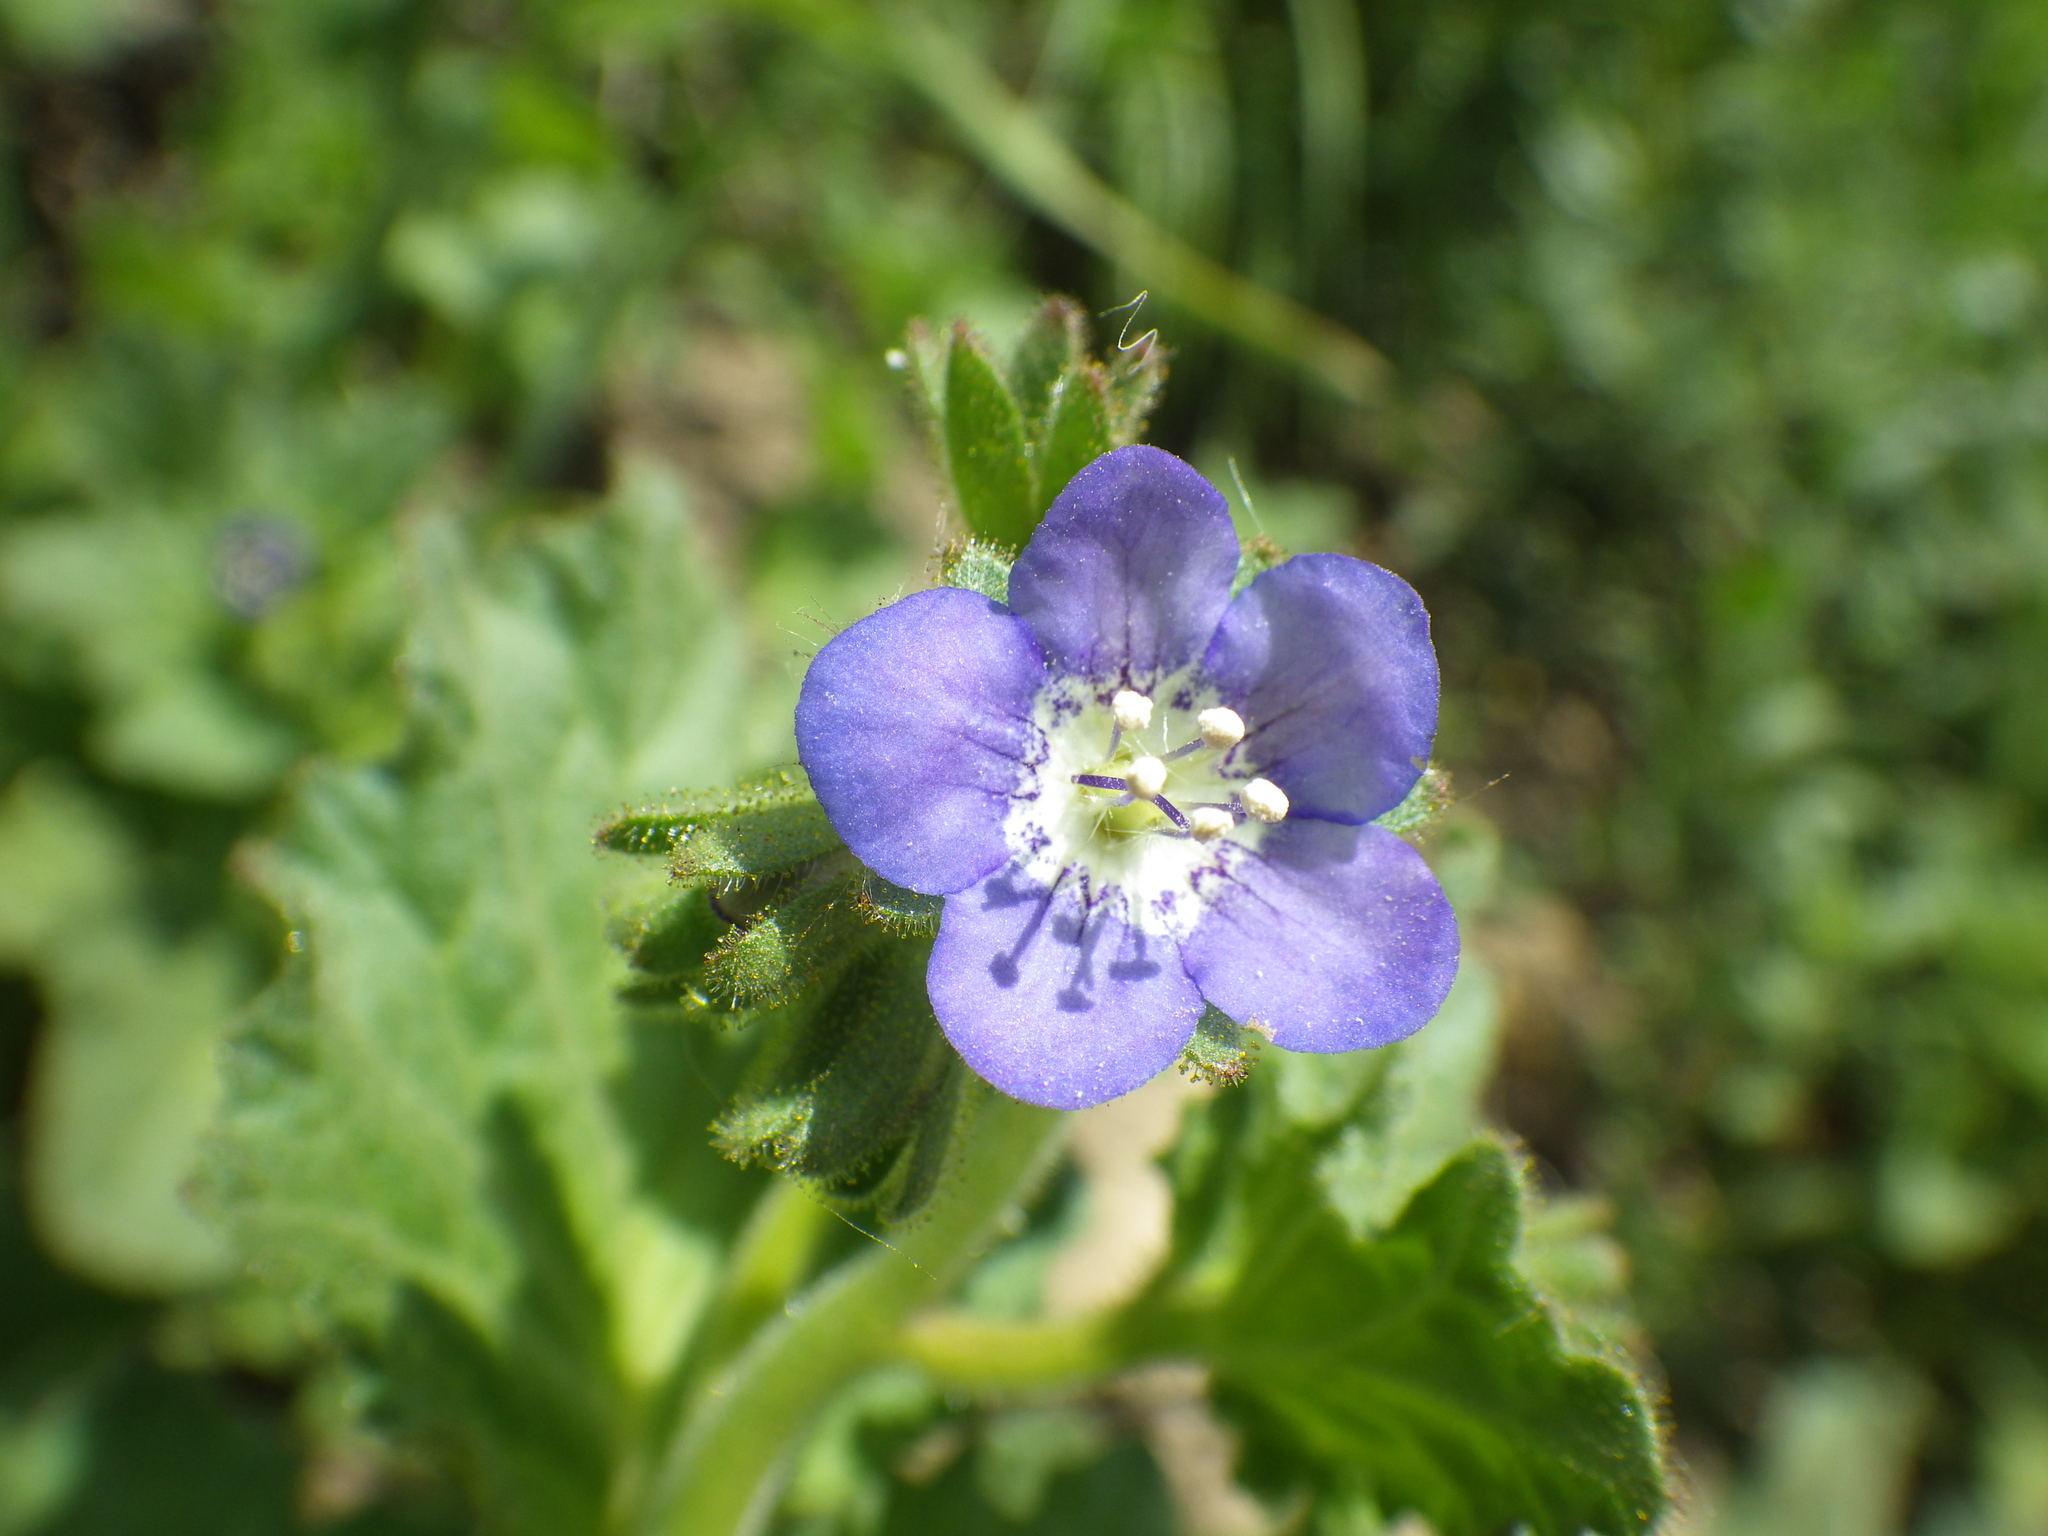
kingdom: Plantae
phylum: Tracheophyta
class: Magnoliopsida
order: Boraginales
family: Hydrophyllaceae
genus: Phacelia
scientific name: Phacelia viscida
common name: Sticky phacelia
